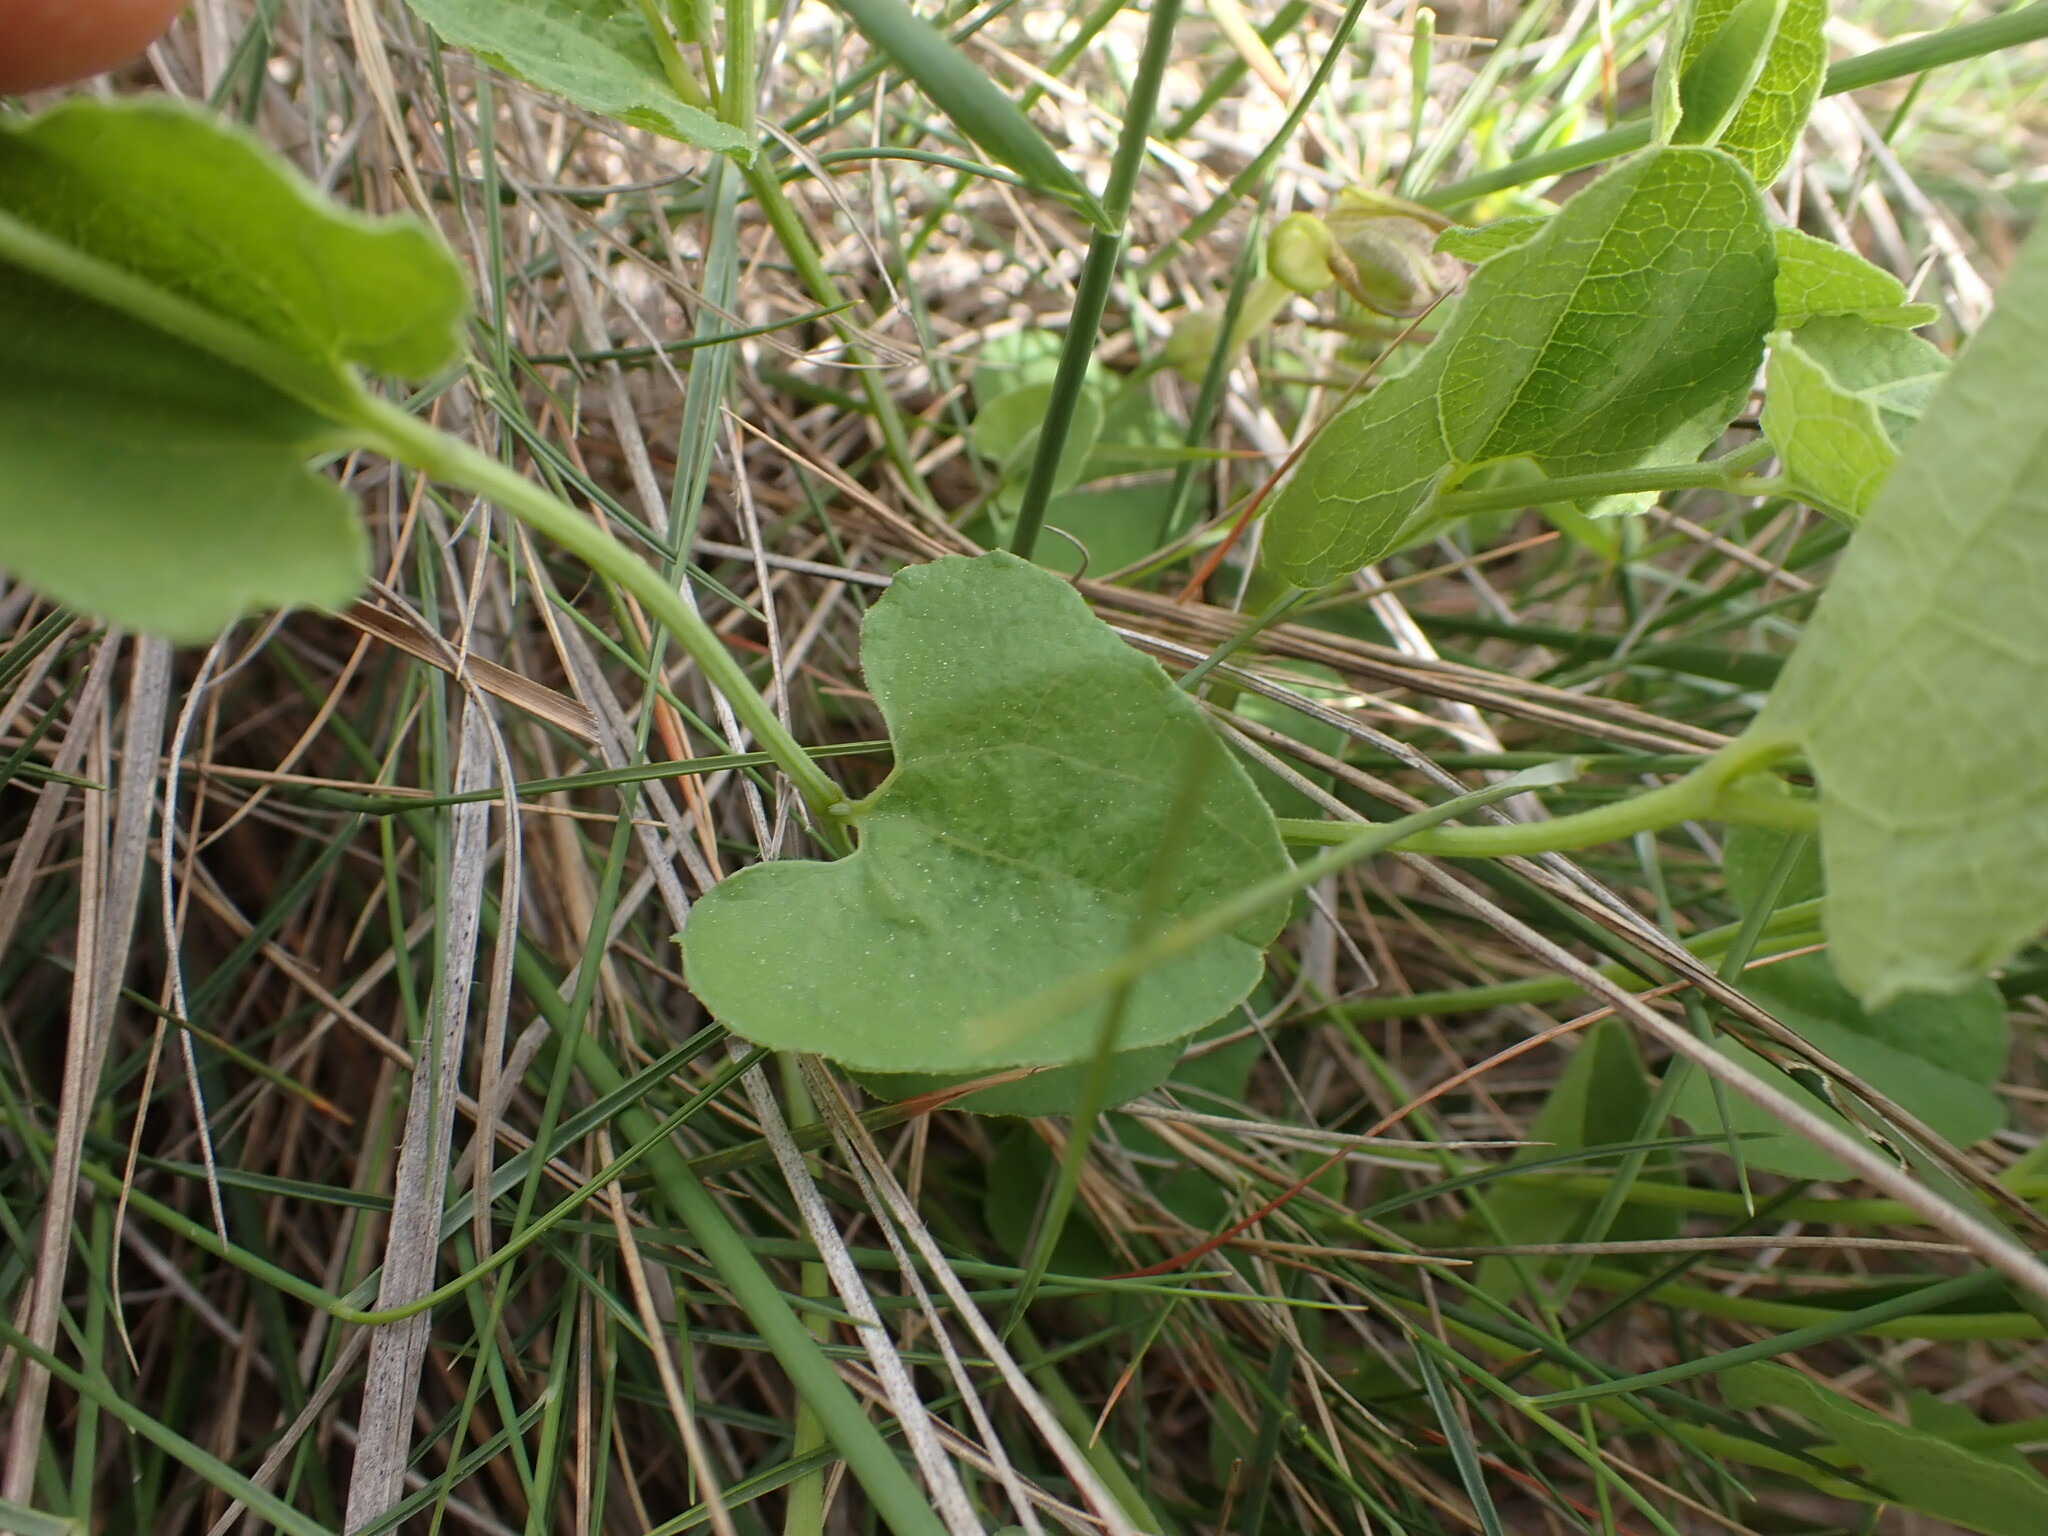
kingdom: Plantae
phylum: Tracheophyta
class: Magnoliopsida
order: Piperales
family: Aristolochiaceae
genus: Aristolochia
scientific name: Aristolochia pistolochia
